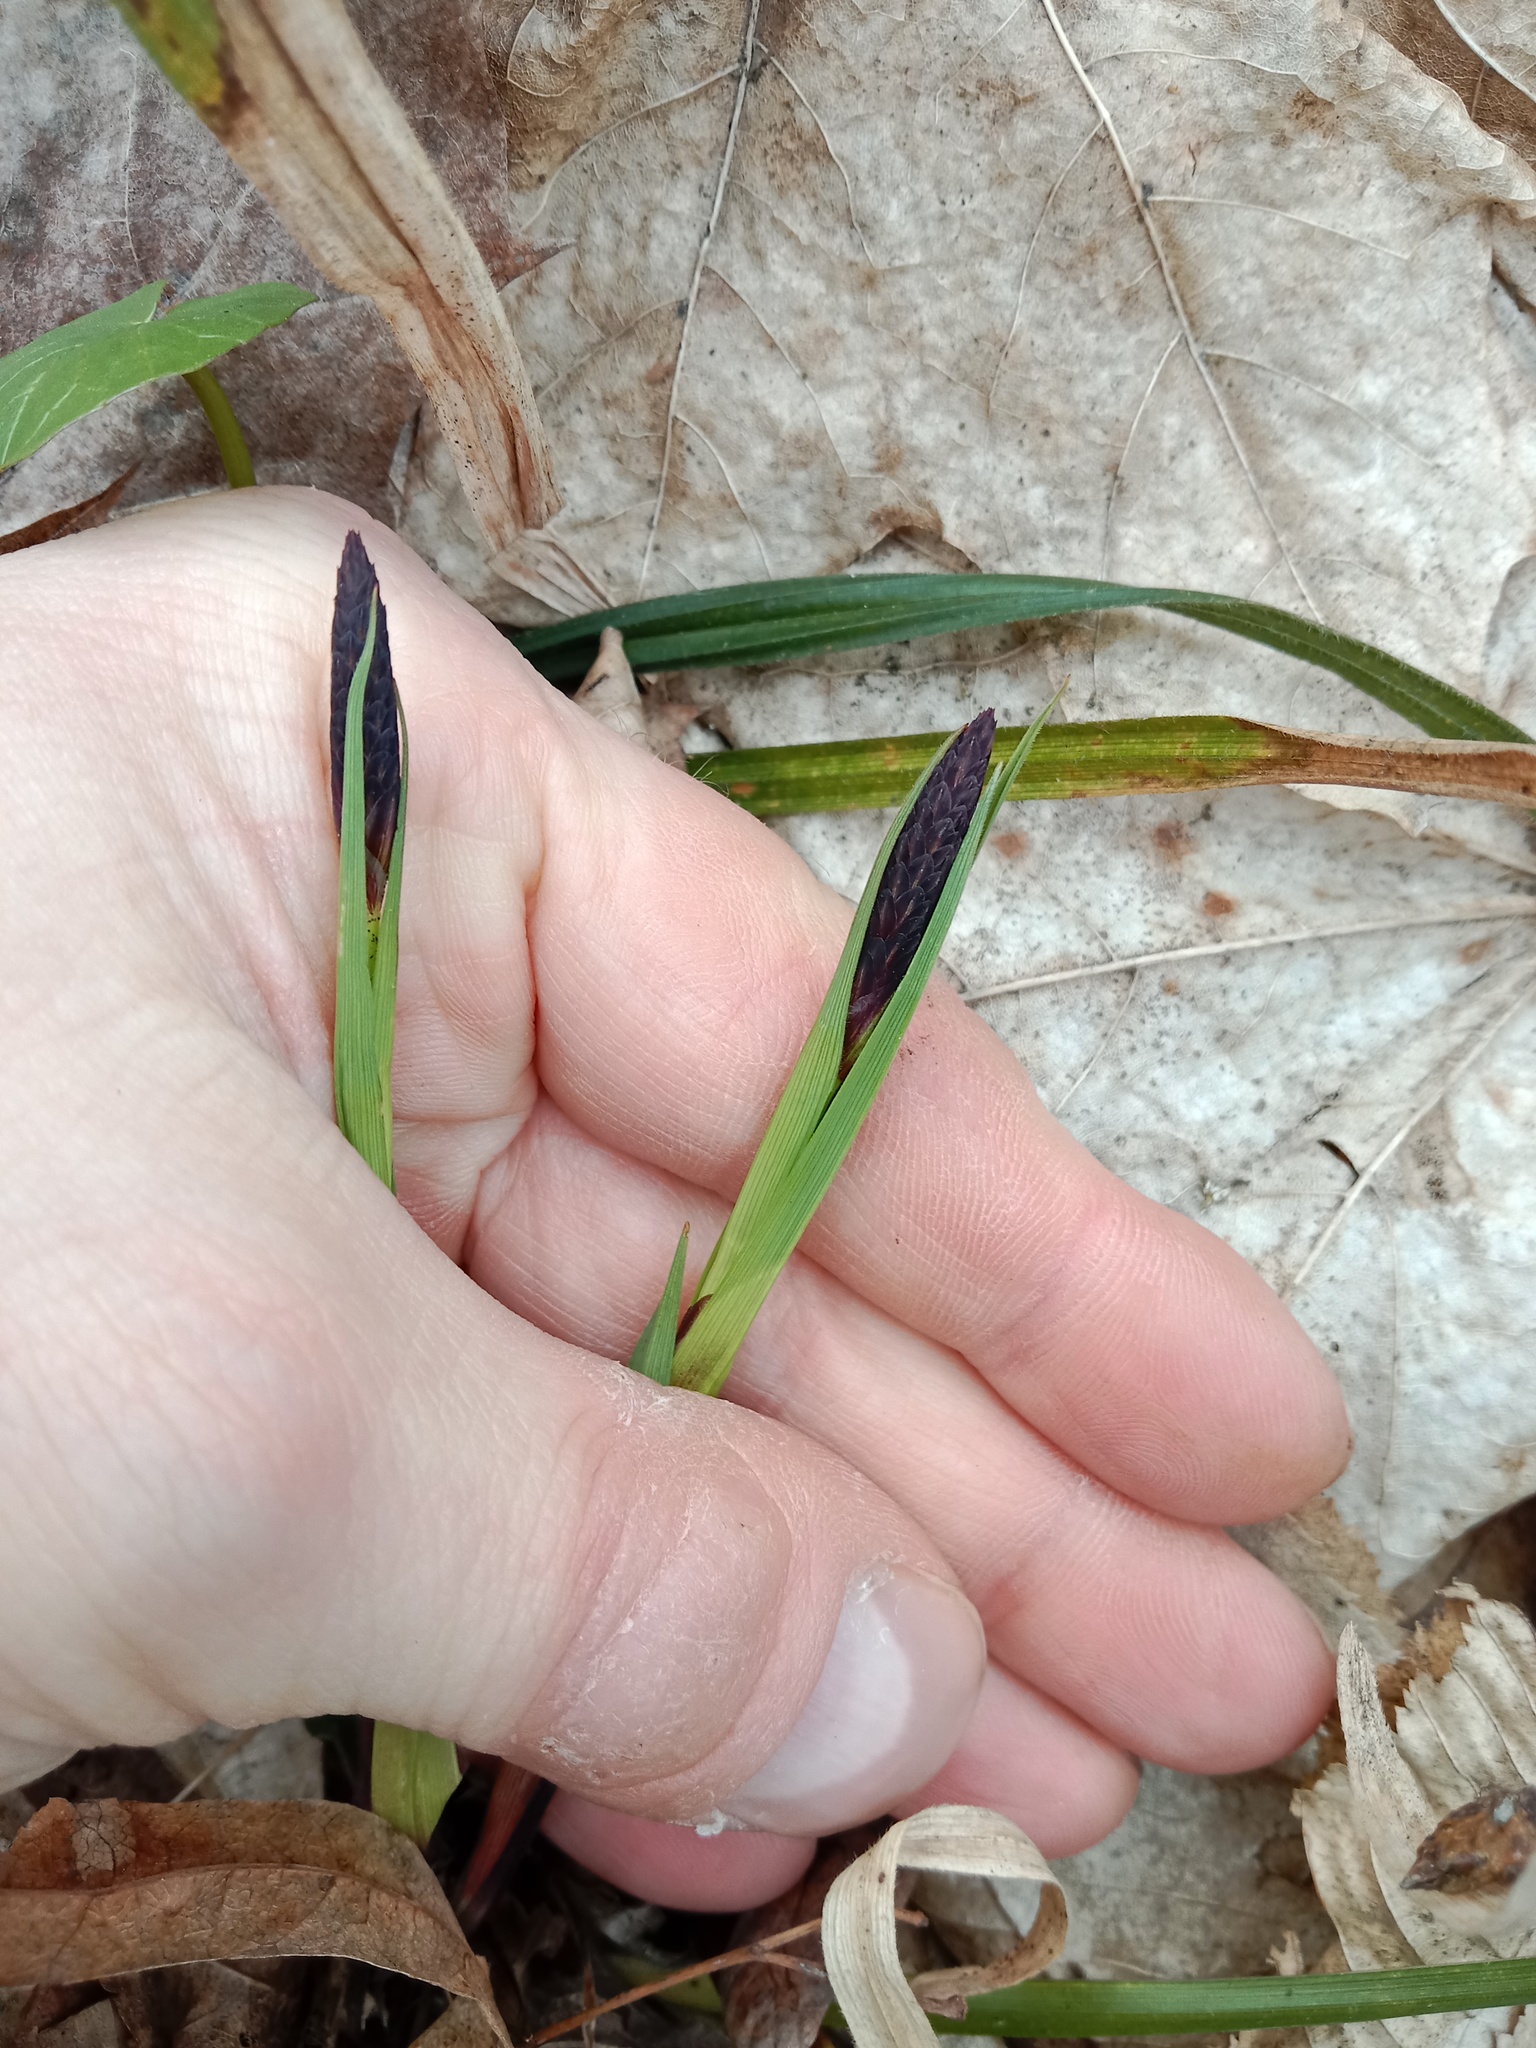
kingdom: Plantae
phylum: Tracheophyta
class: Liliopsida
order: Poales
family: Cyperaceae
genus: Carex
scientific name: Carex pilosa
